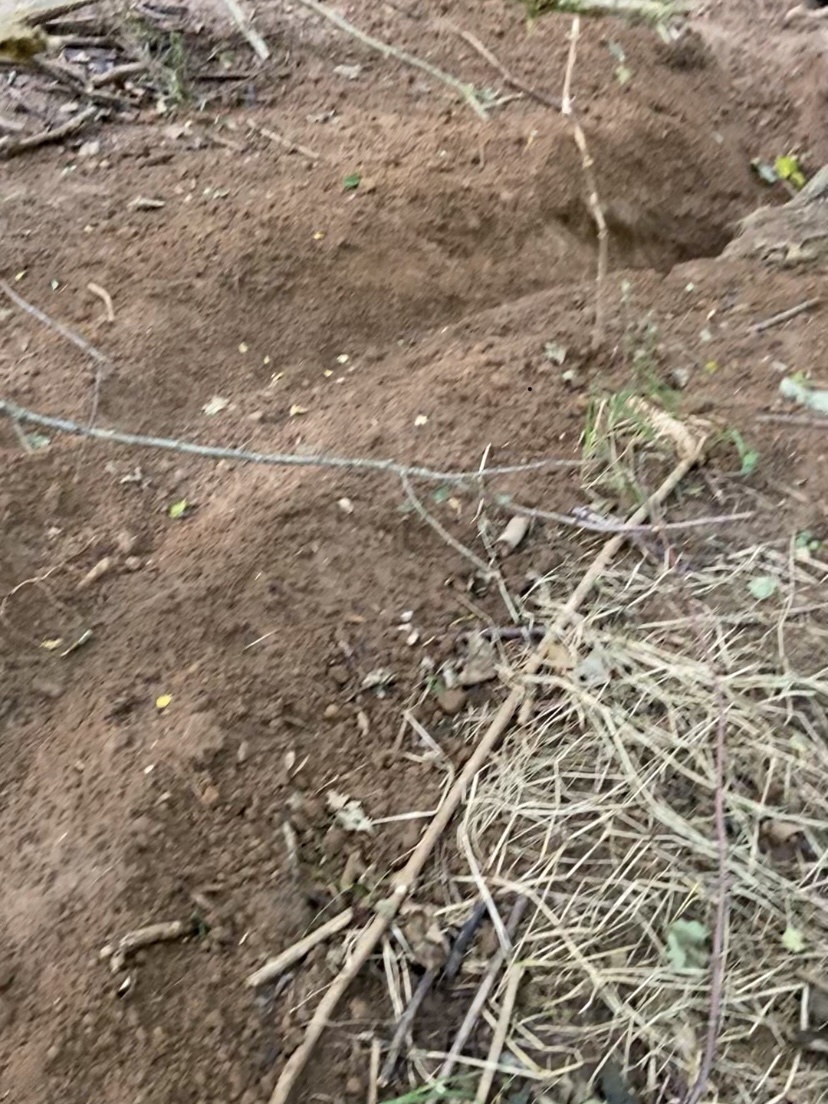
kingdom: Animalia
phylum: Chordata
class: Mammalia
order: Carnivora
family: Mustelidae
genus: Meles
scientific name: Meles meles
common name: Eurasian badger
